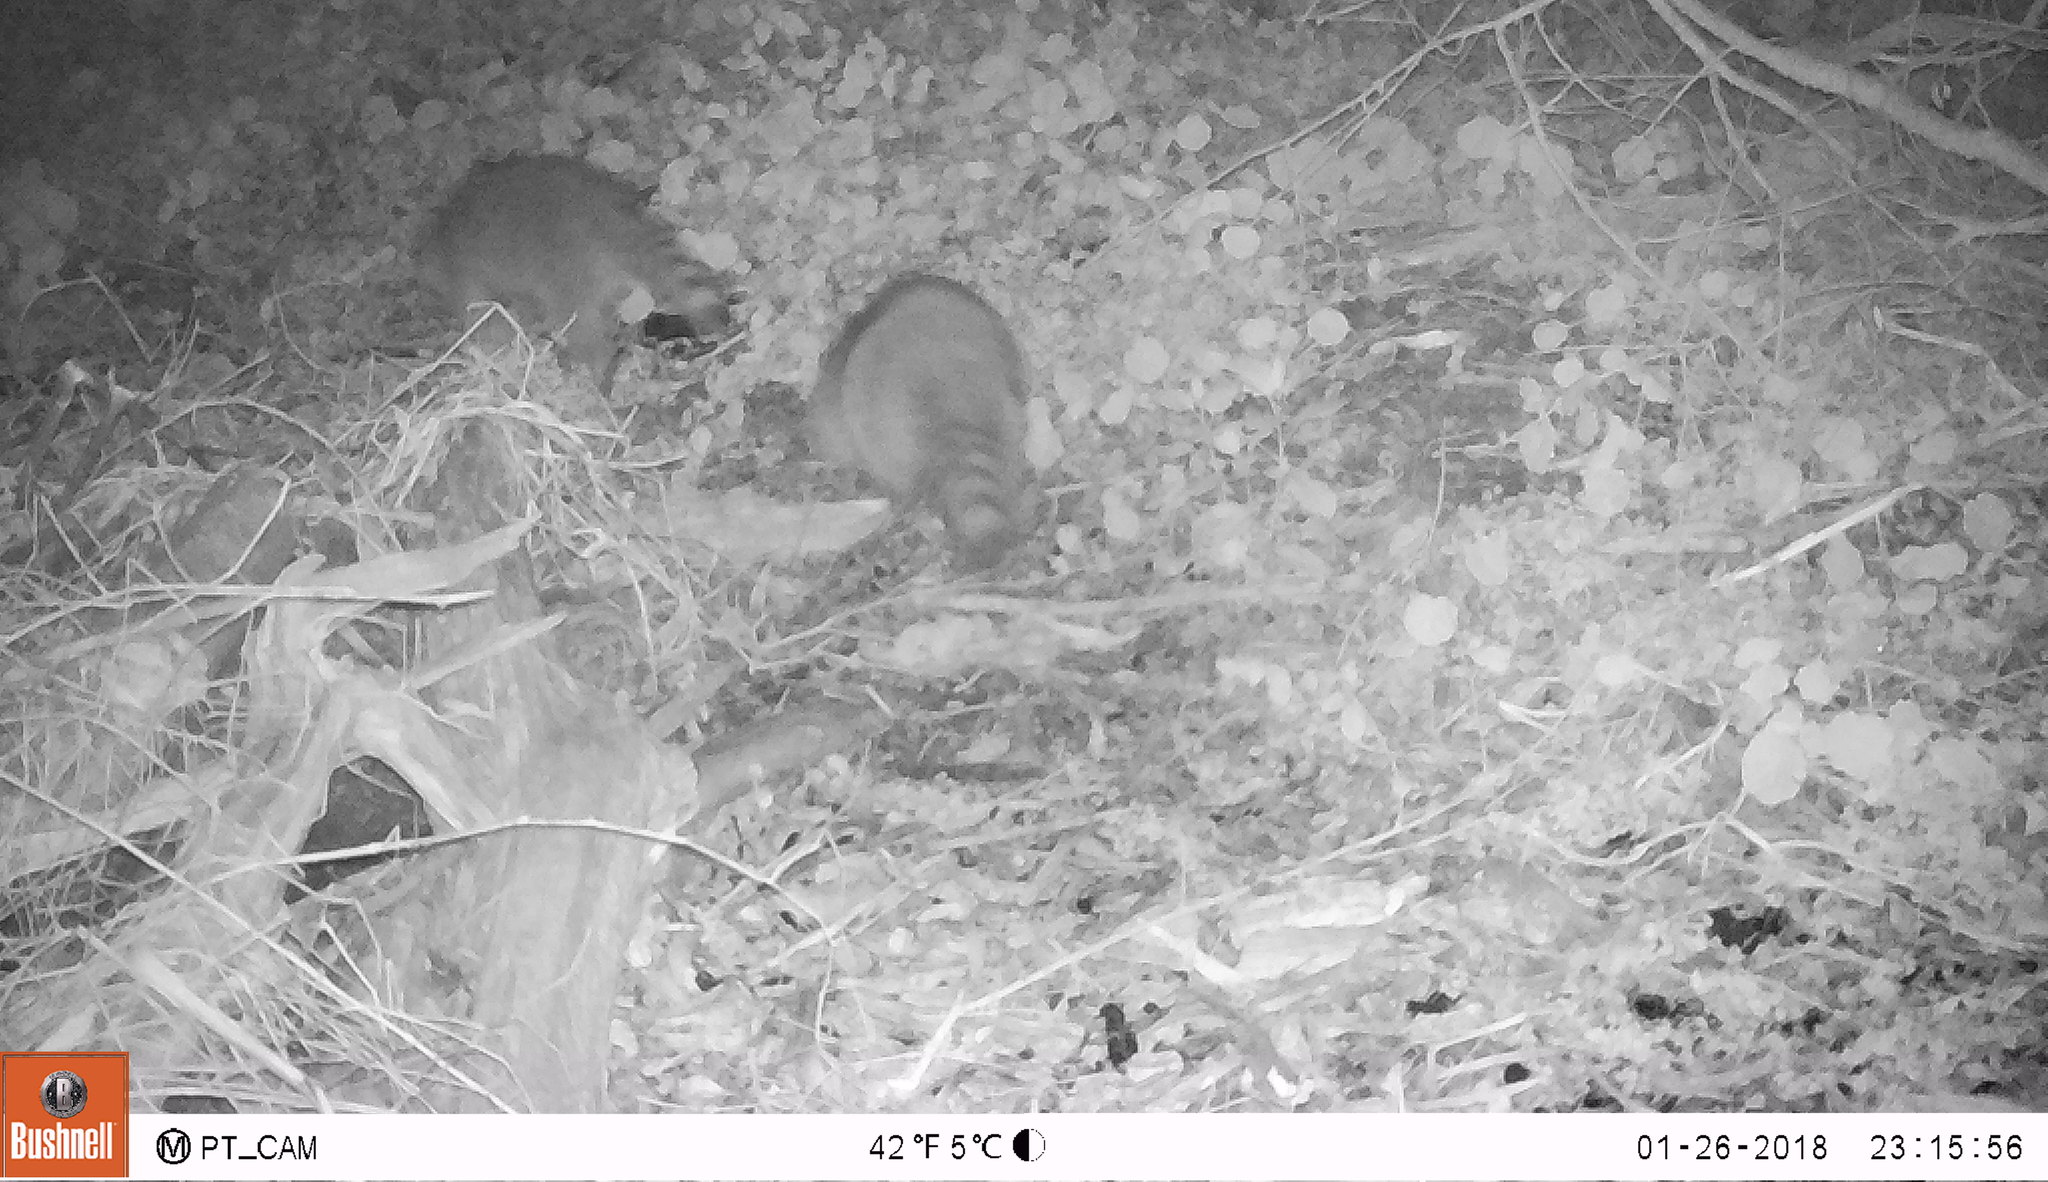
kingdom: Animalia
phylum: Chordata
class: Mammalia
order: Carnivora
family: Procyonidae
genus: Procyon
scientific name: Procyon lotor
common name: Raccoon
